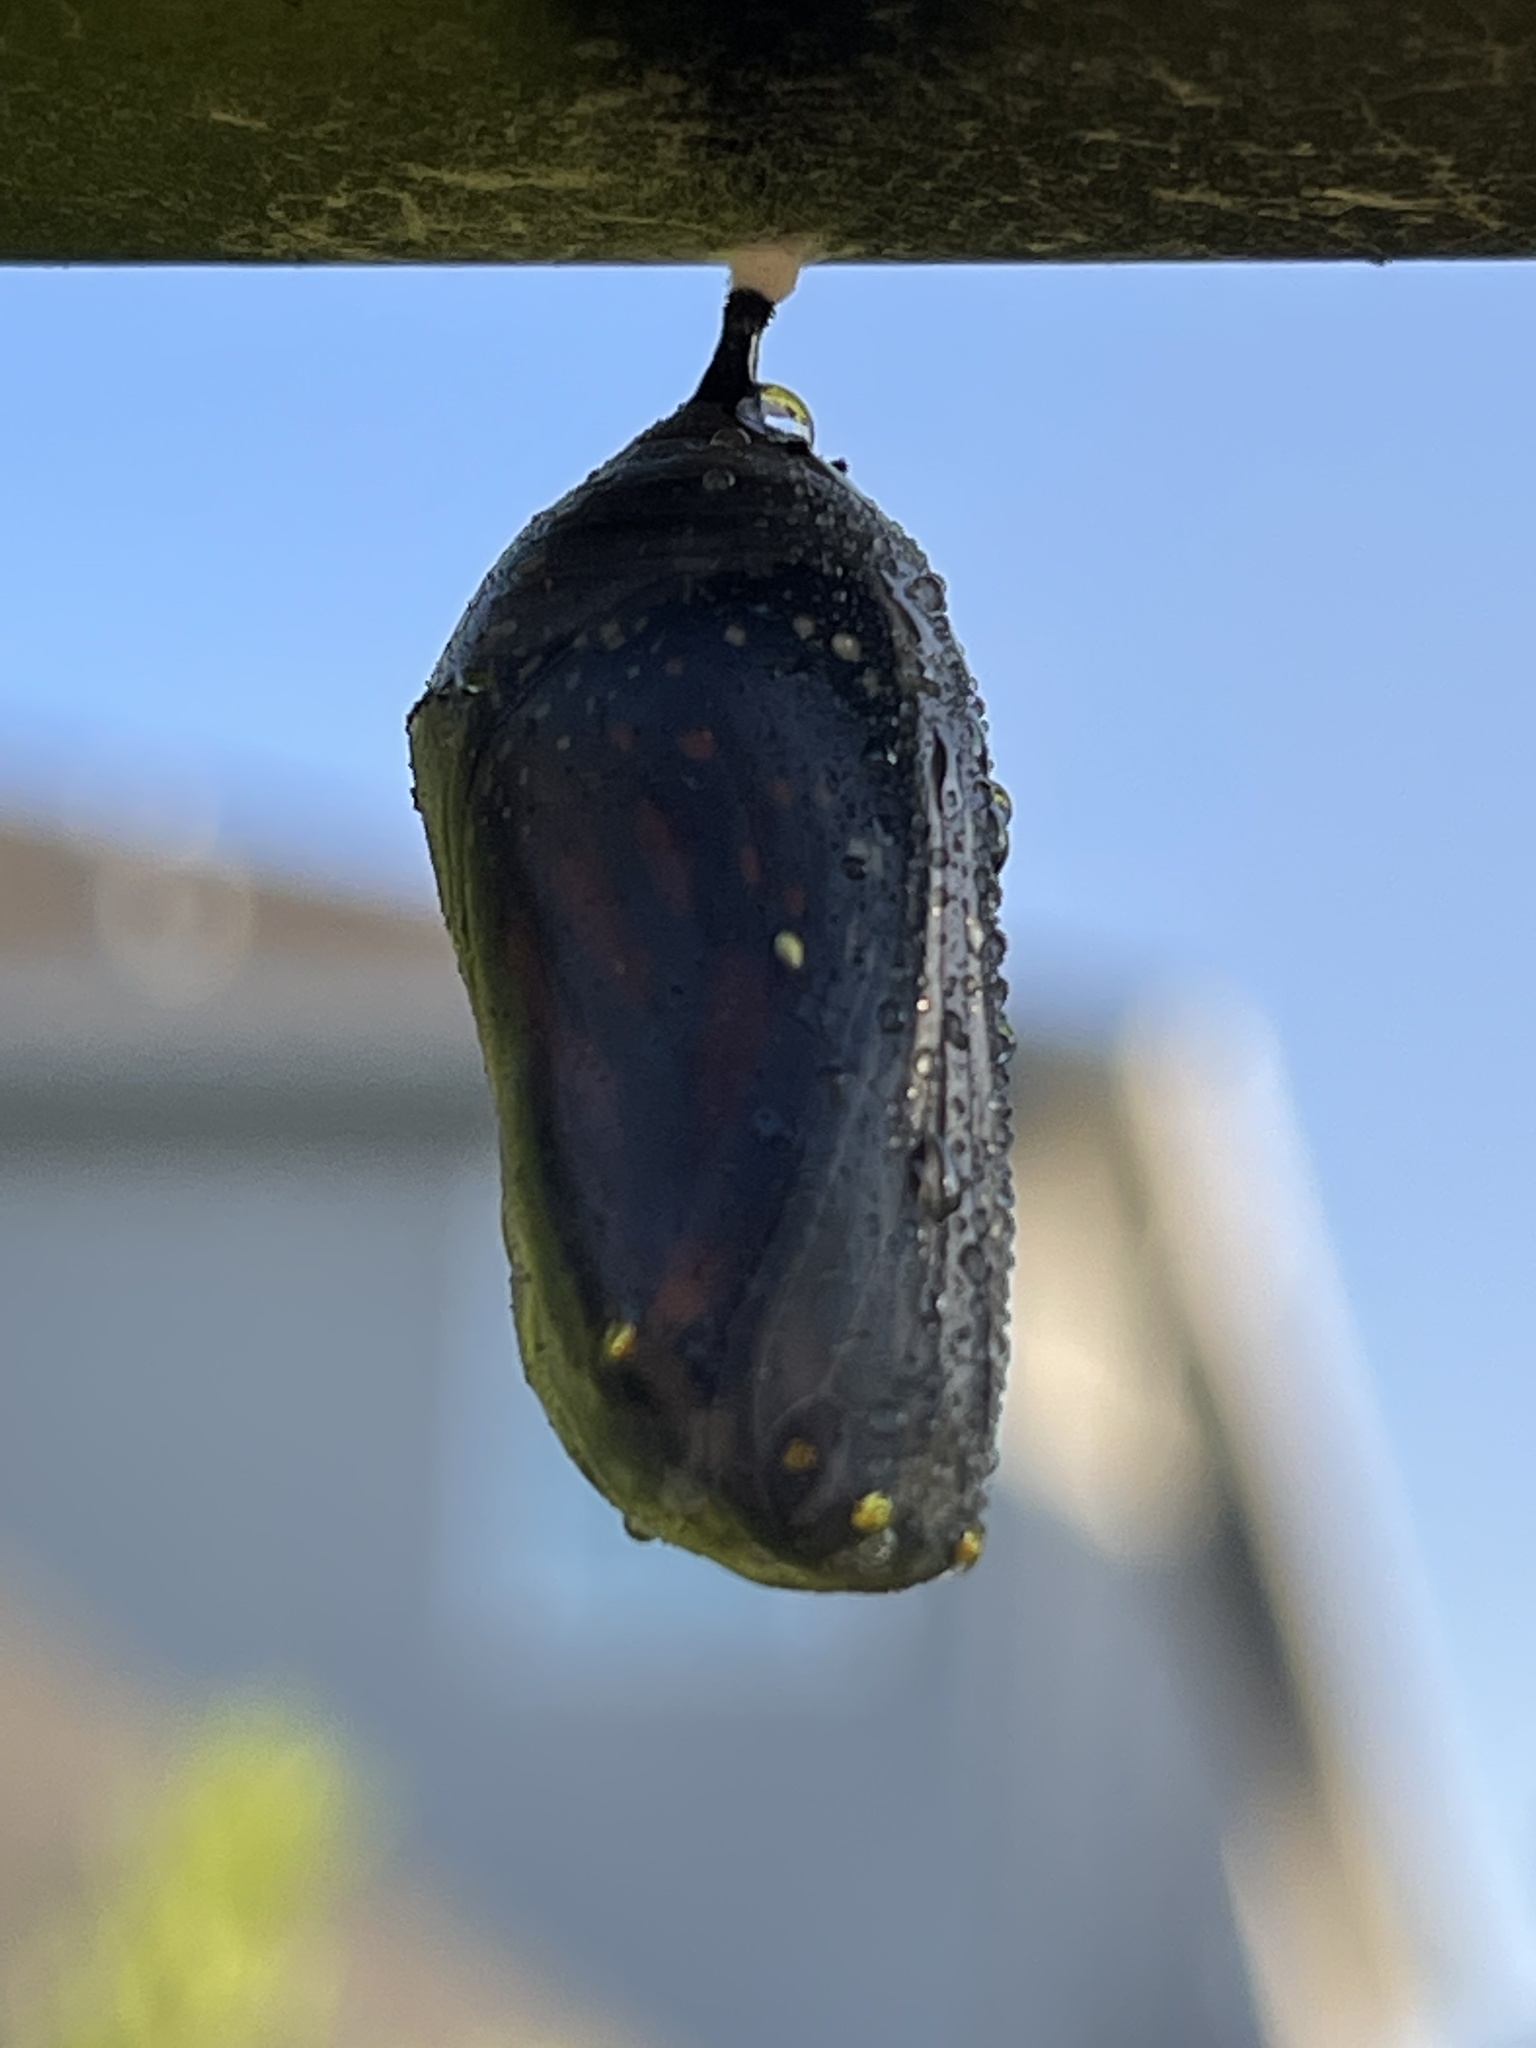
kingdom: Animalia
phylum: Arthropoda
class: Insecta
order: Lepidoptera
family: Nymphalidae
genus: Danaus
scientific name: Danaus plexippus
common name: Monarch
